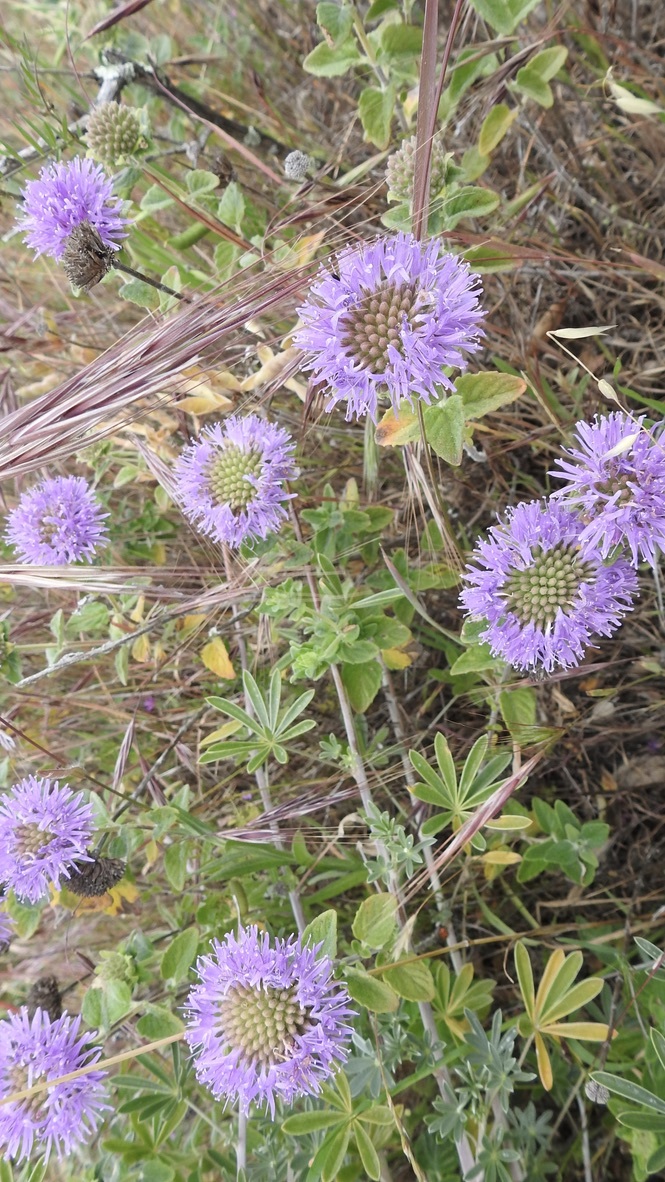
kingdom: Plantae
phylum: Tracheophyta
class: Magnoliopsida
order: Lamiales
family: Lamiaceae
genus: Monardella
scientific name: Monardella odoratissima
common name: Pacific monardella
